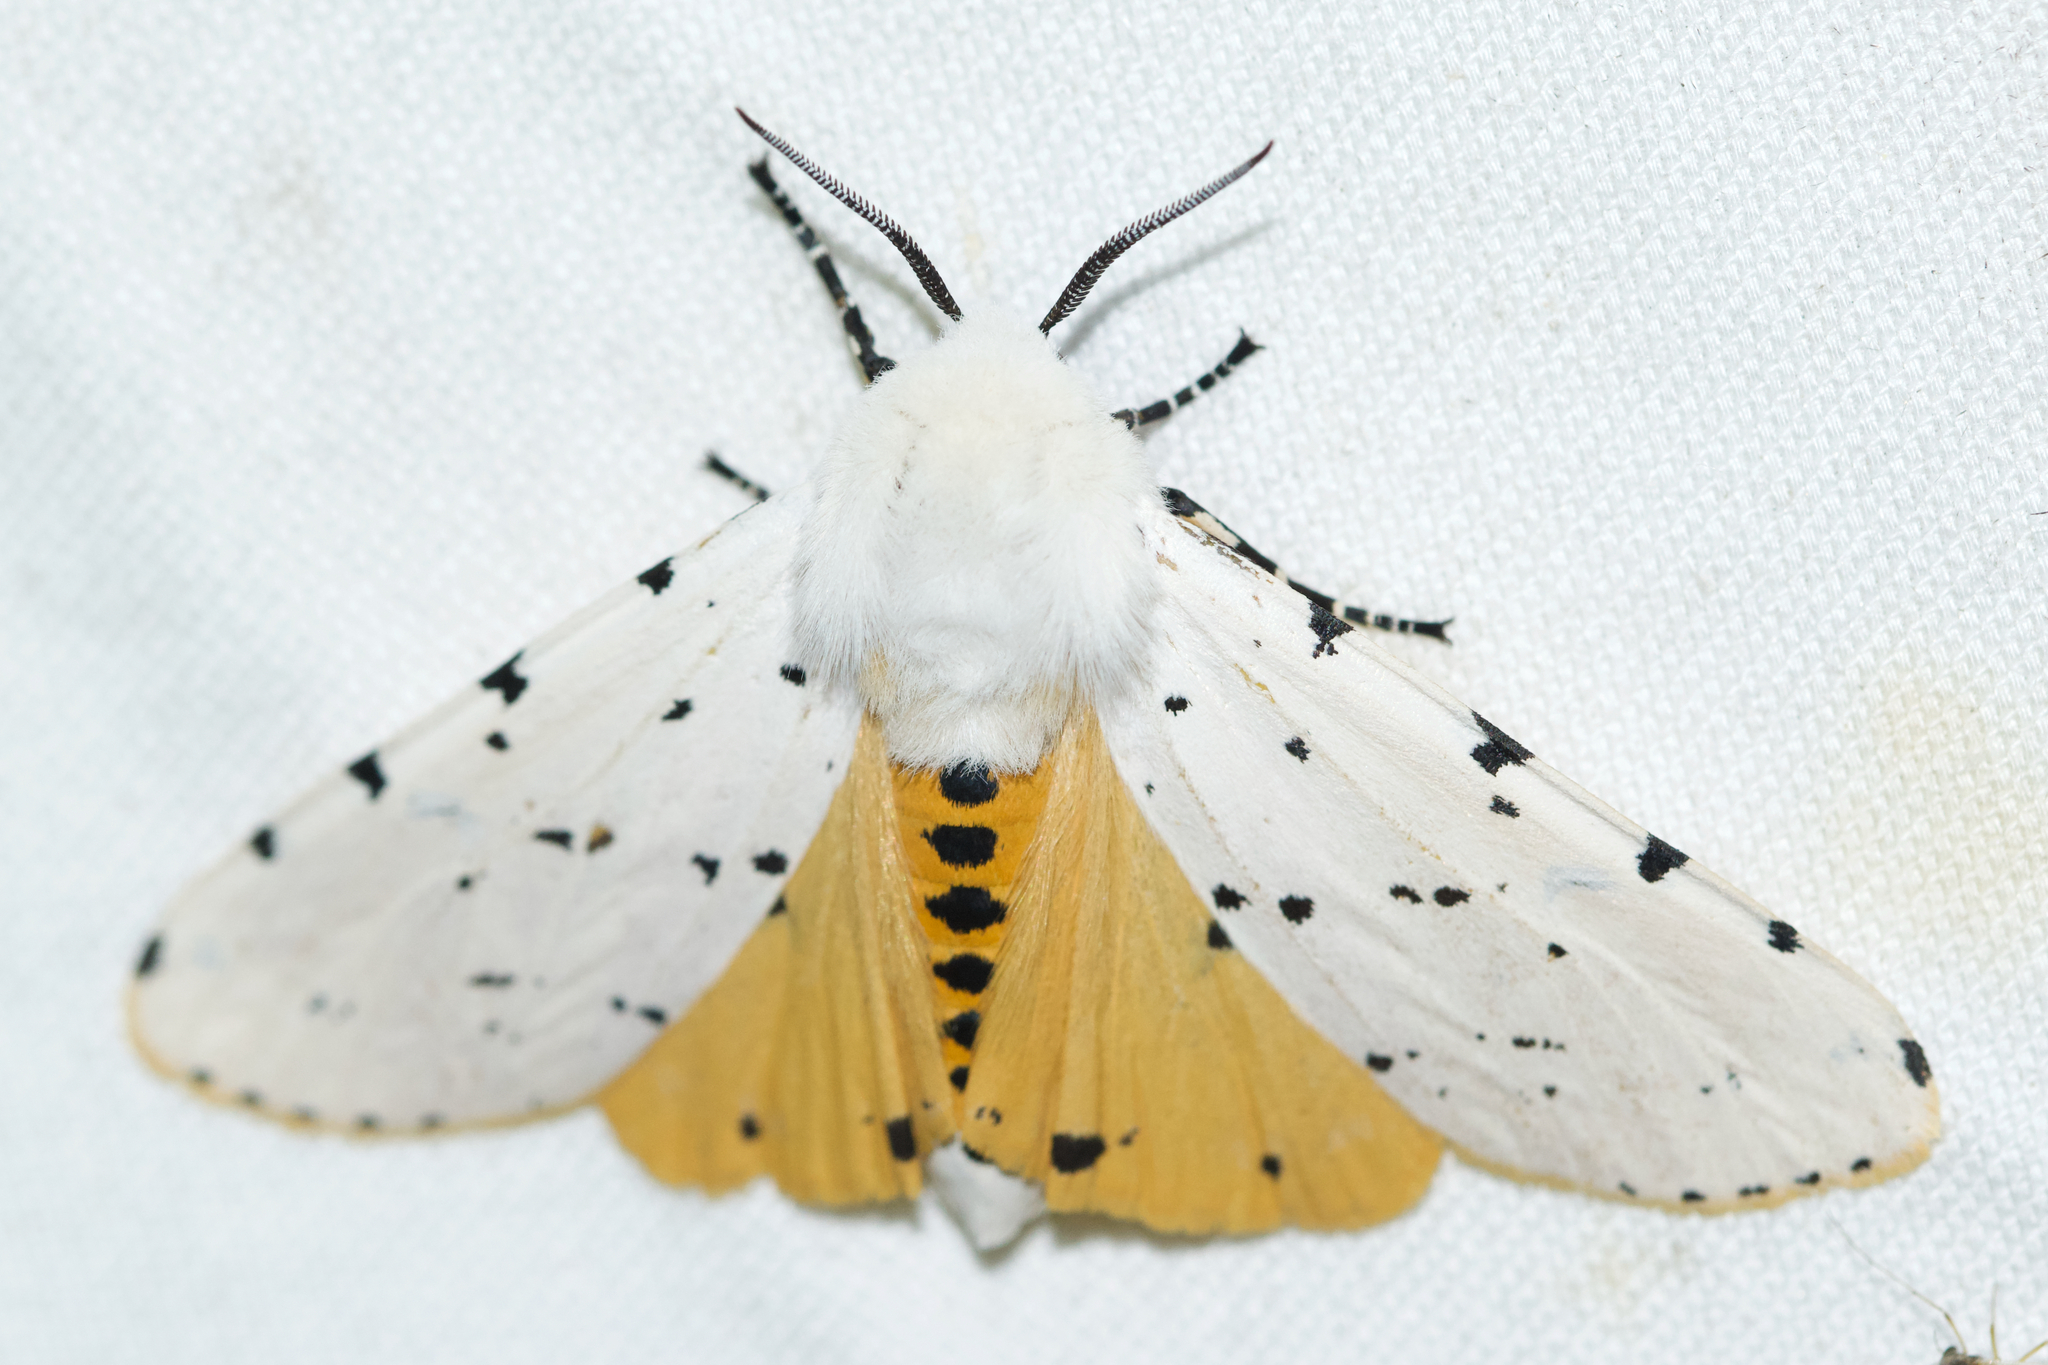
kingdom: Animalia
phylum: Arthropoda
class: Insecta
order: Lepidoptera
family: Erebidae
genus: Estigmene
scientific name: Estigmene acrea
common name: Salt marsh moth
